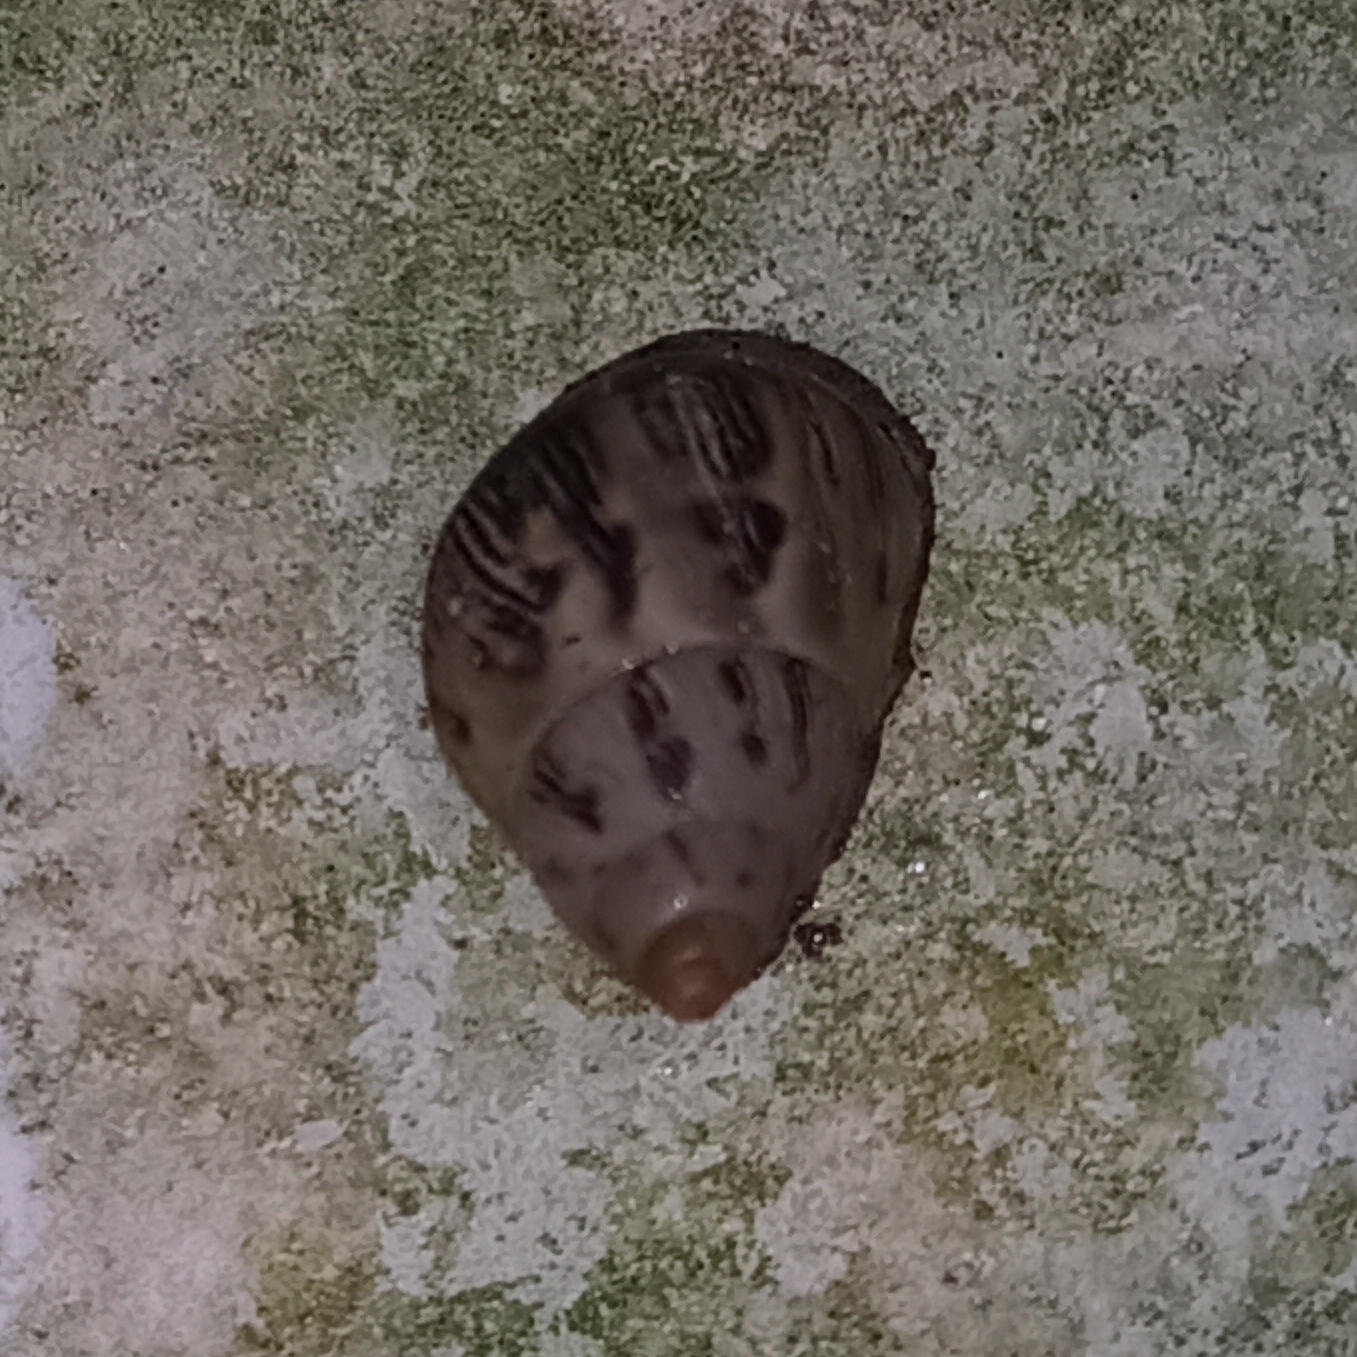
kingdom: Animalia
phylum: Mollusca
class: Gastropoda
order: Stylommatophora
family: Bulimulidae
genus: Drymaeus
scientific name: Drymaeus papyraceus
